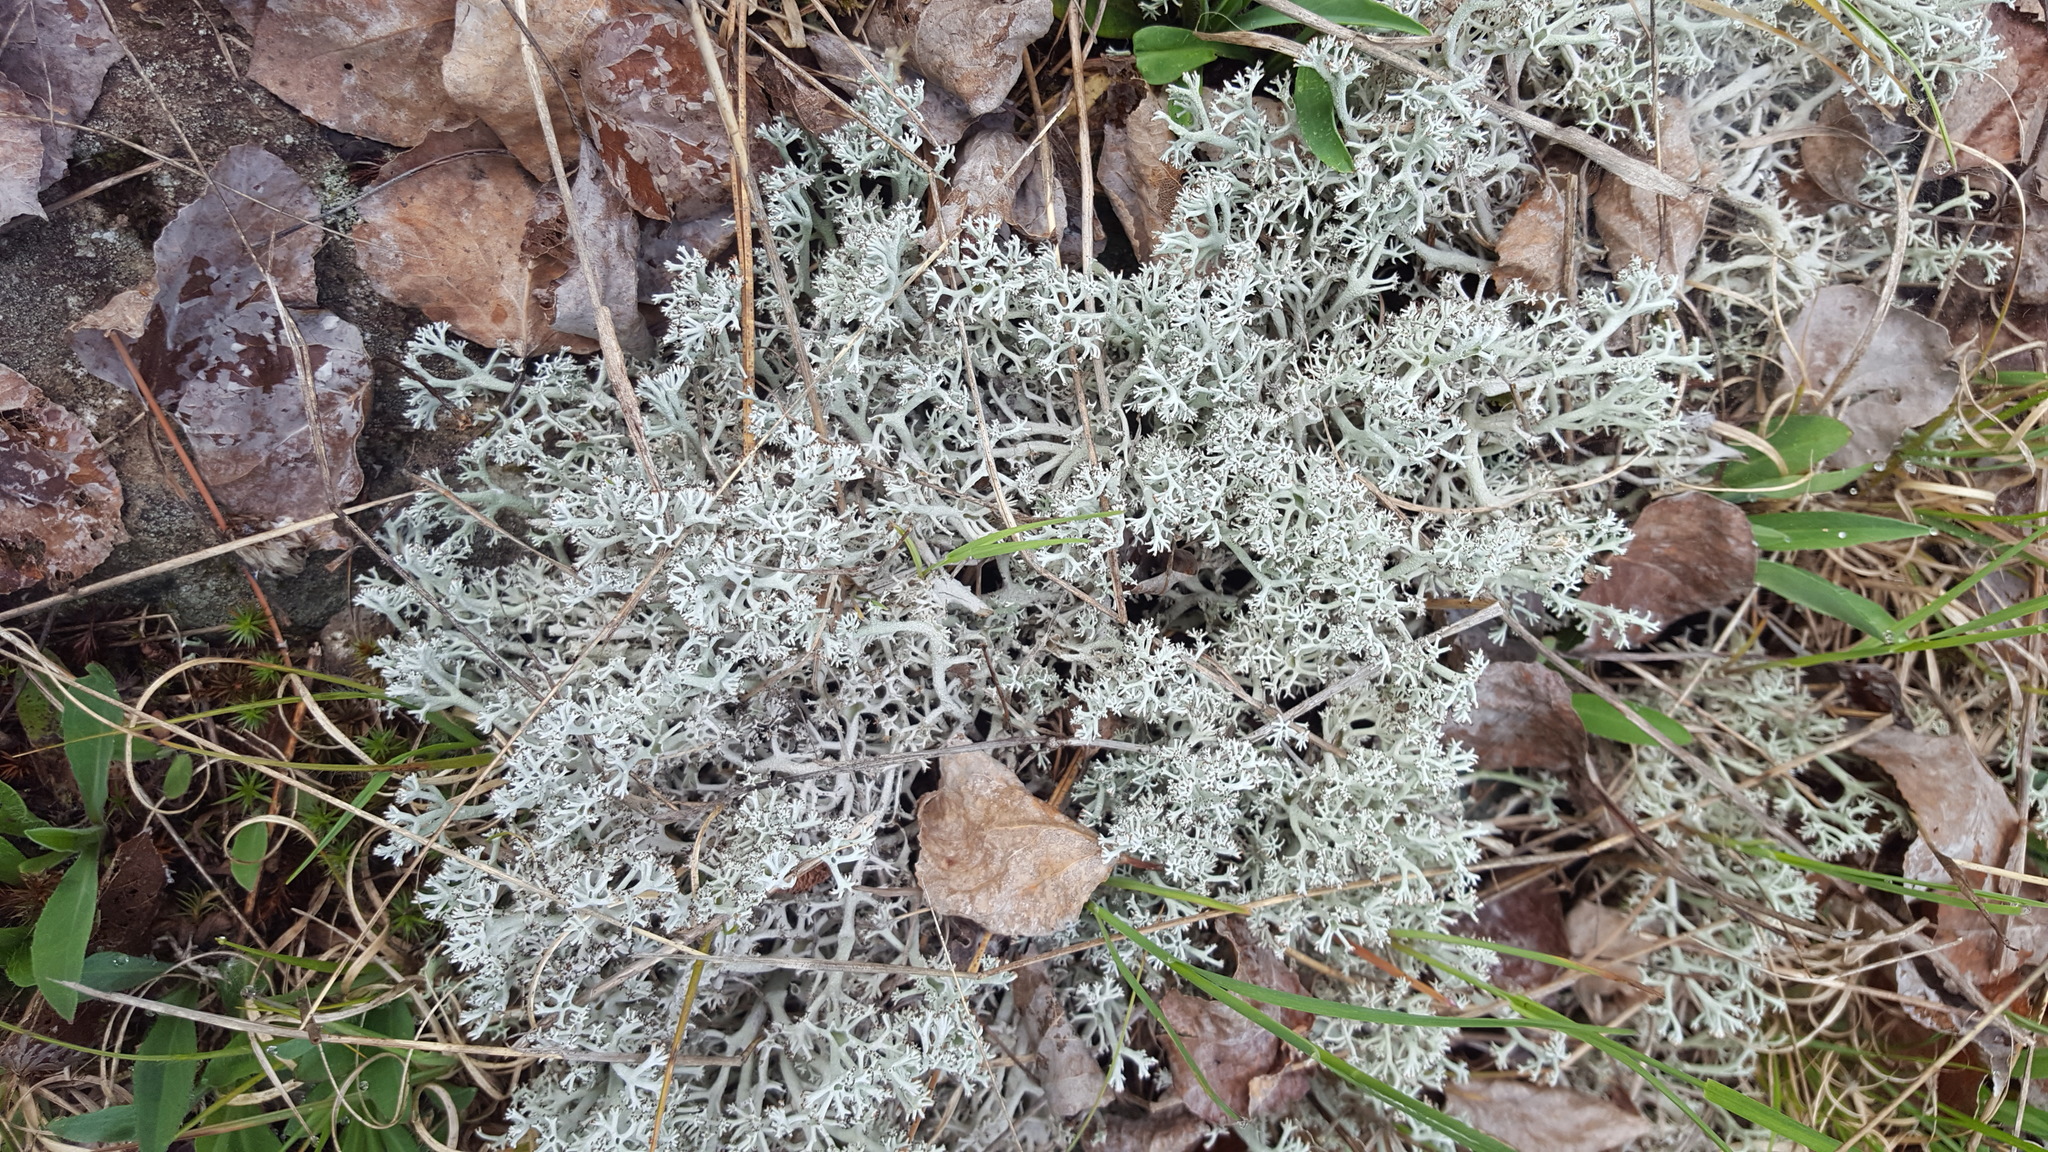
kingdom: Fungi
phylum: Ascomycota
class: Lecanoromycetes
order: Lecanorales
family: Cladoniaceae
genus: Cladonia
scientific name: Cladonia rangiferina
